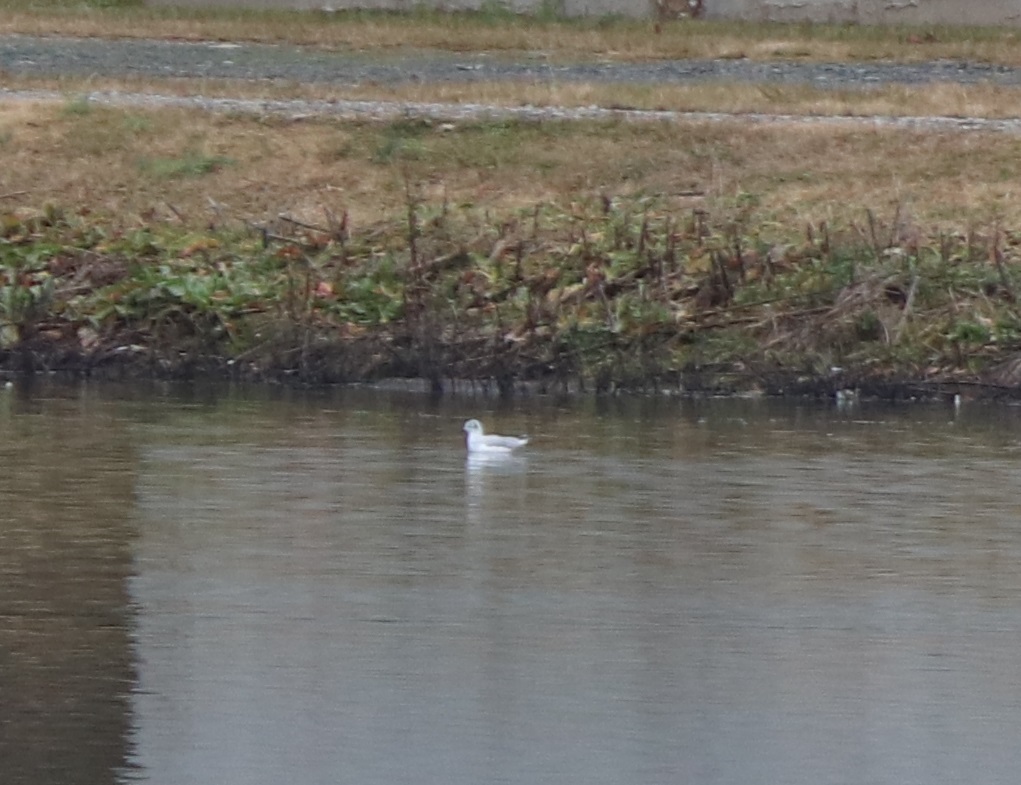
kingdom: Animalia
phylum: Chordata
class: Aves
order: Charadriiformes
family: Laridae
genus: Chroicocephalus
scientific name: Chroicocephalus philadelphia
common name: Bonaparte's gull
